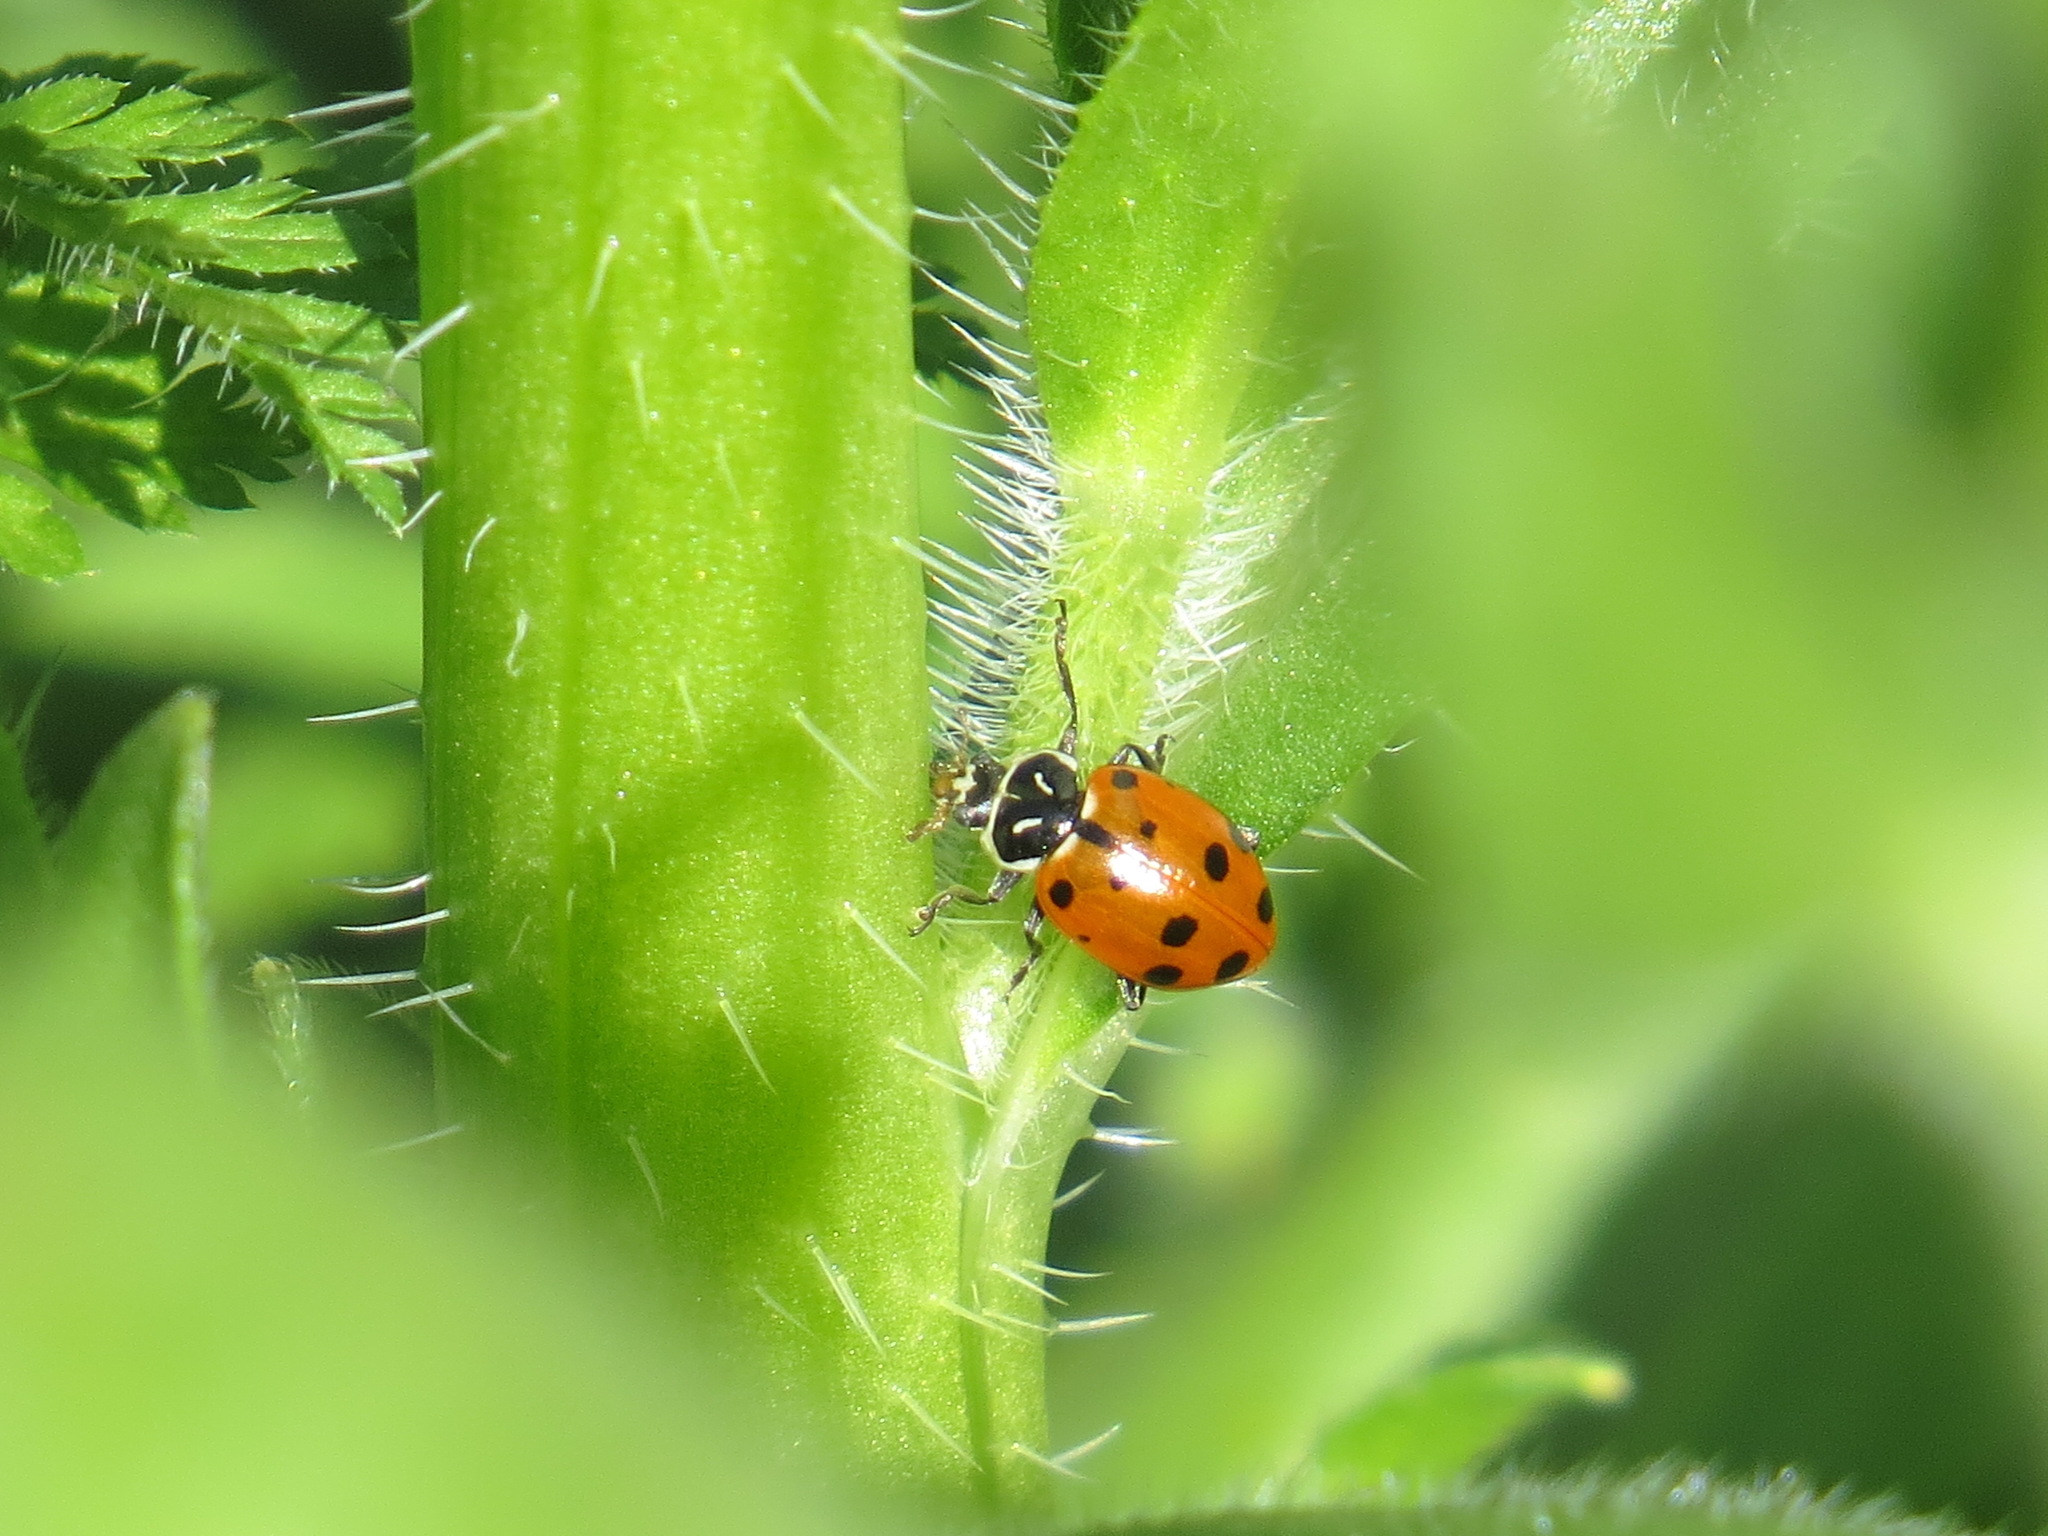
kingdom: Animalia
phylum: Arthropoda
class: Insecta
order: Coleoptera
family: Coccinellidae
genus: Hippodamia
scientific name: Hippodamia convergens
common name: Convergent lady beetle
